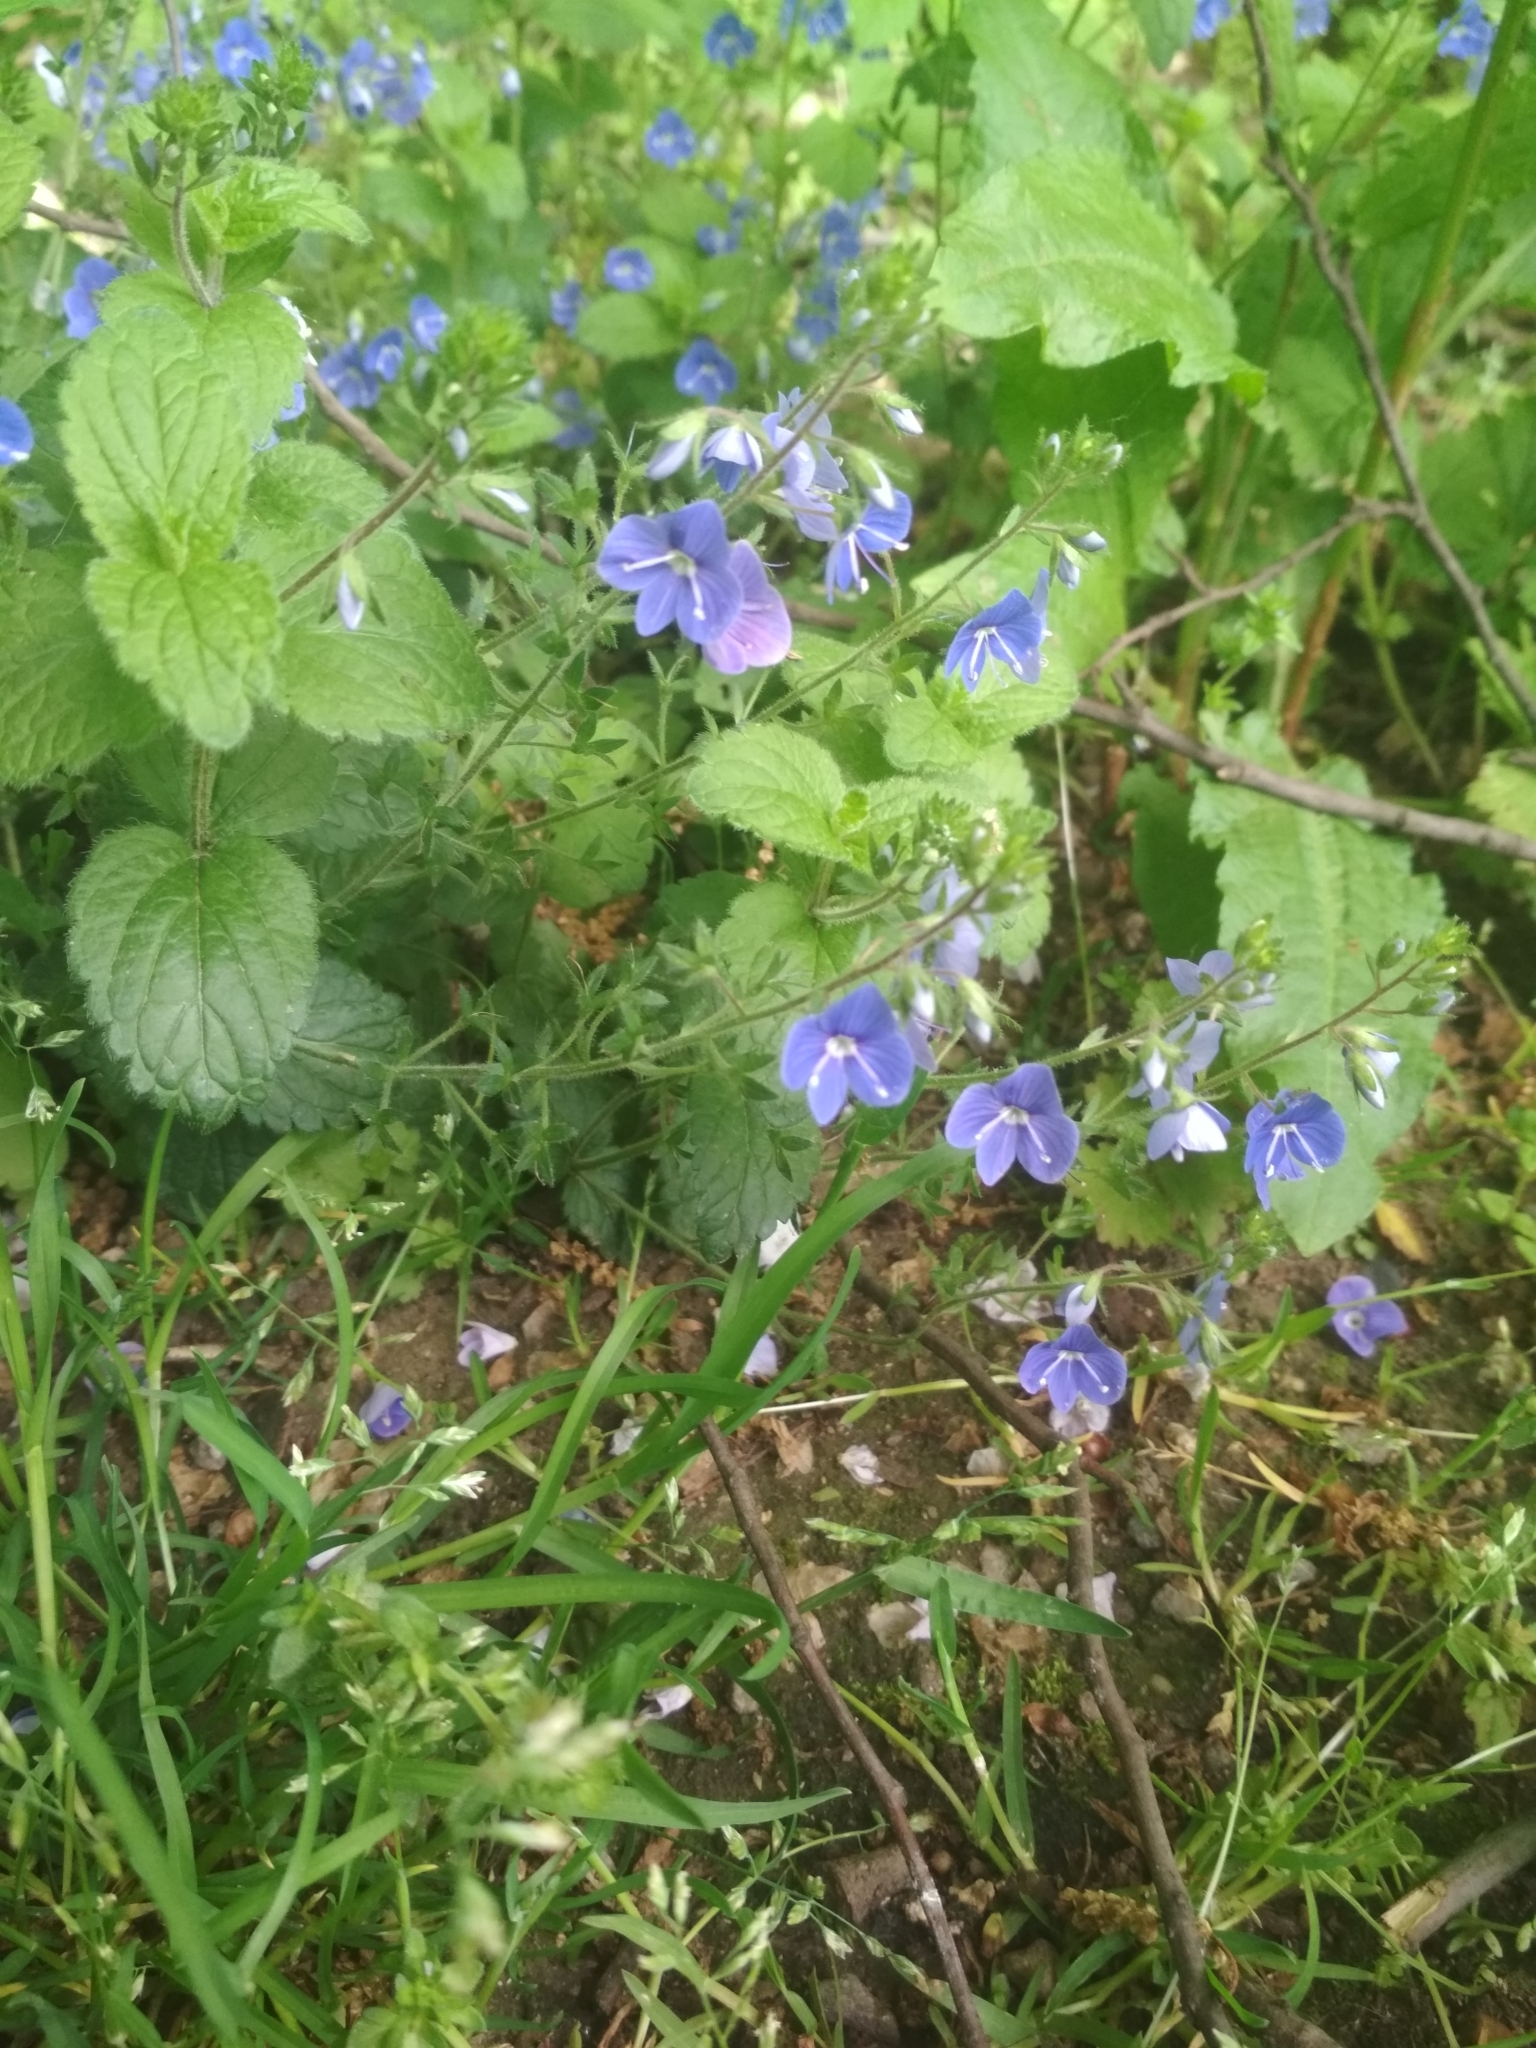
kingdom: Plantae
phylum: Tracheophyta
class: Magnoliopsida
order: Lamiales
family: Plantaginaceae
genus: Veronica
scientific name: Veronica chamaedrys
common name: Germander speedwell
